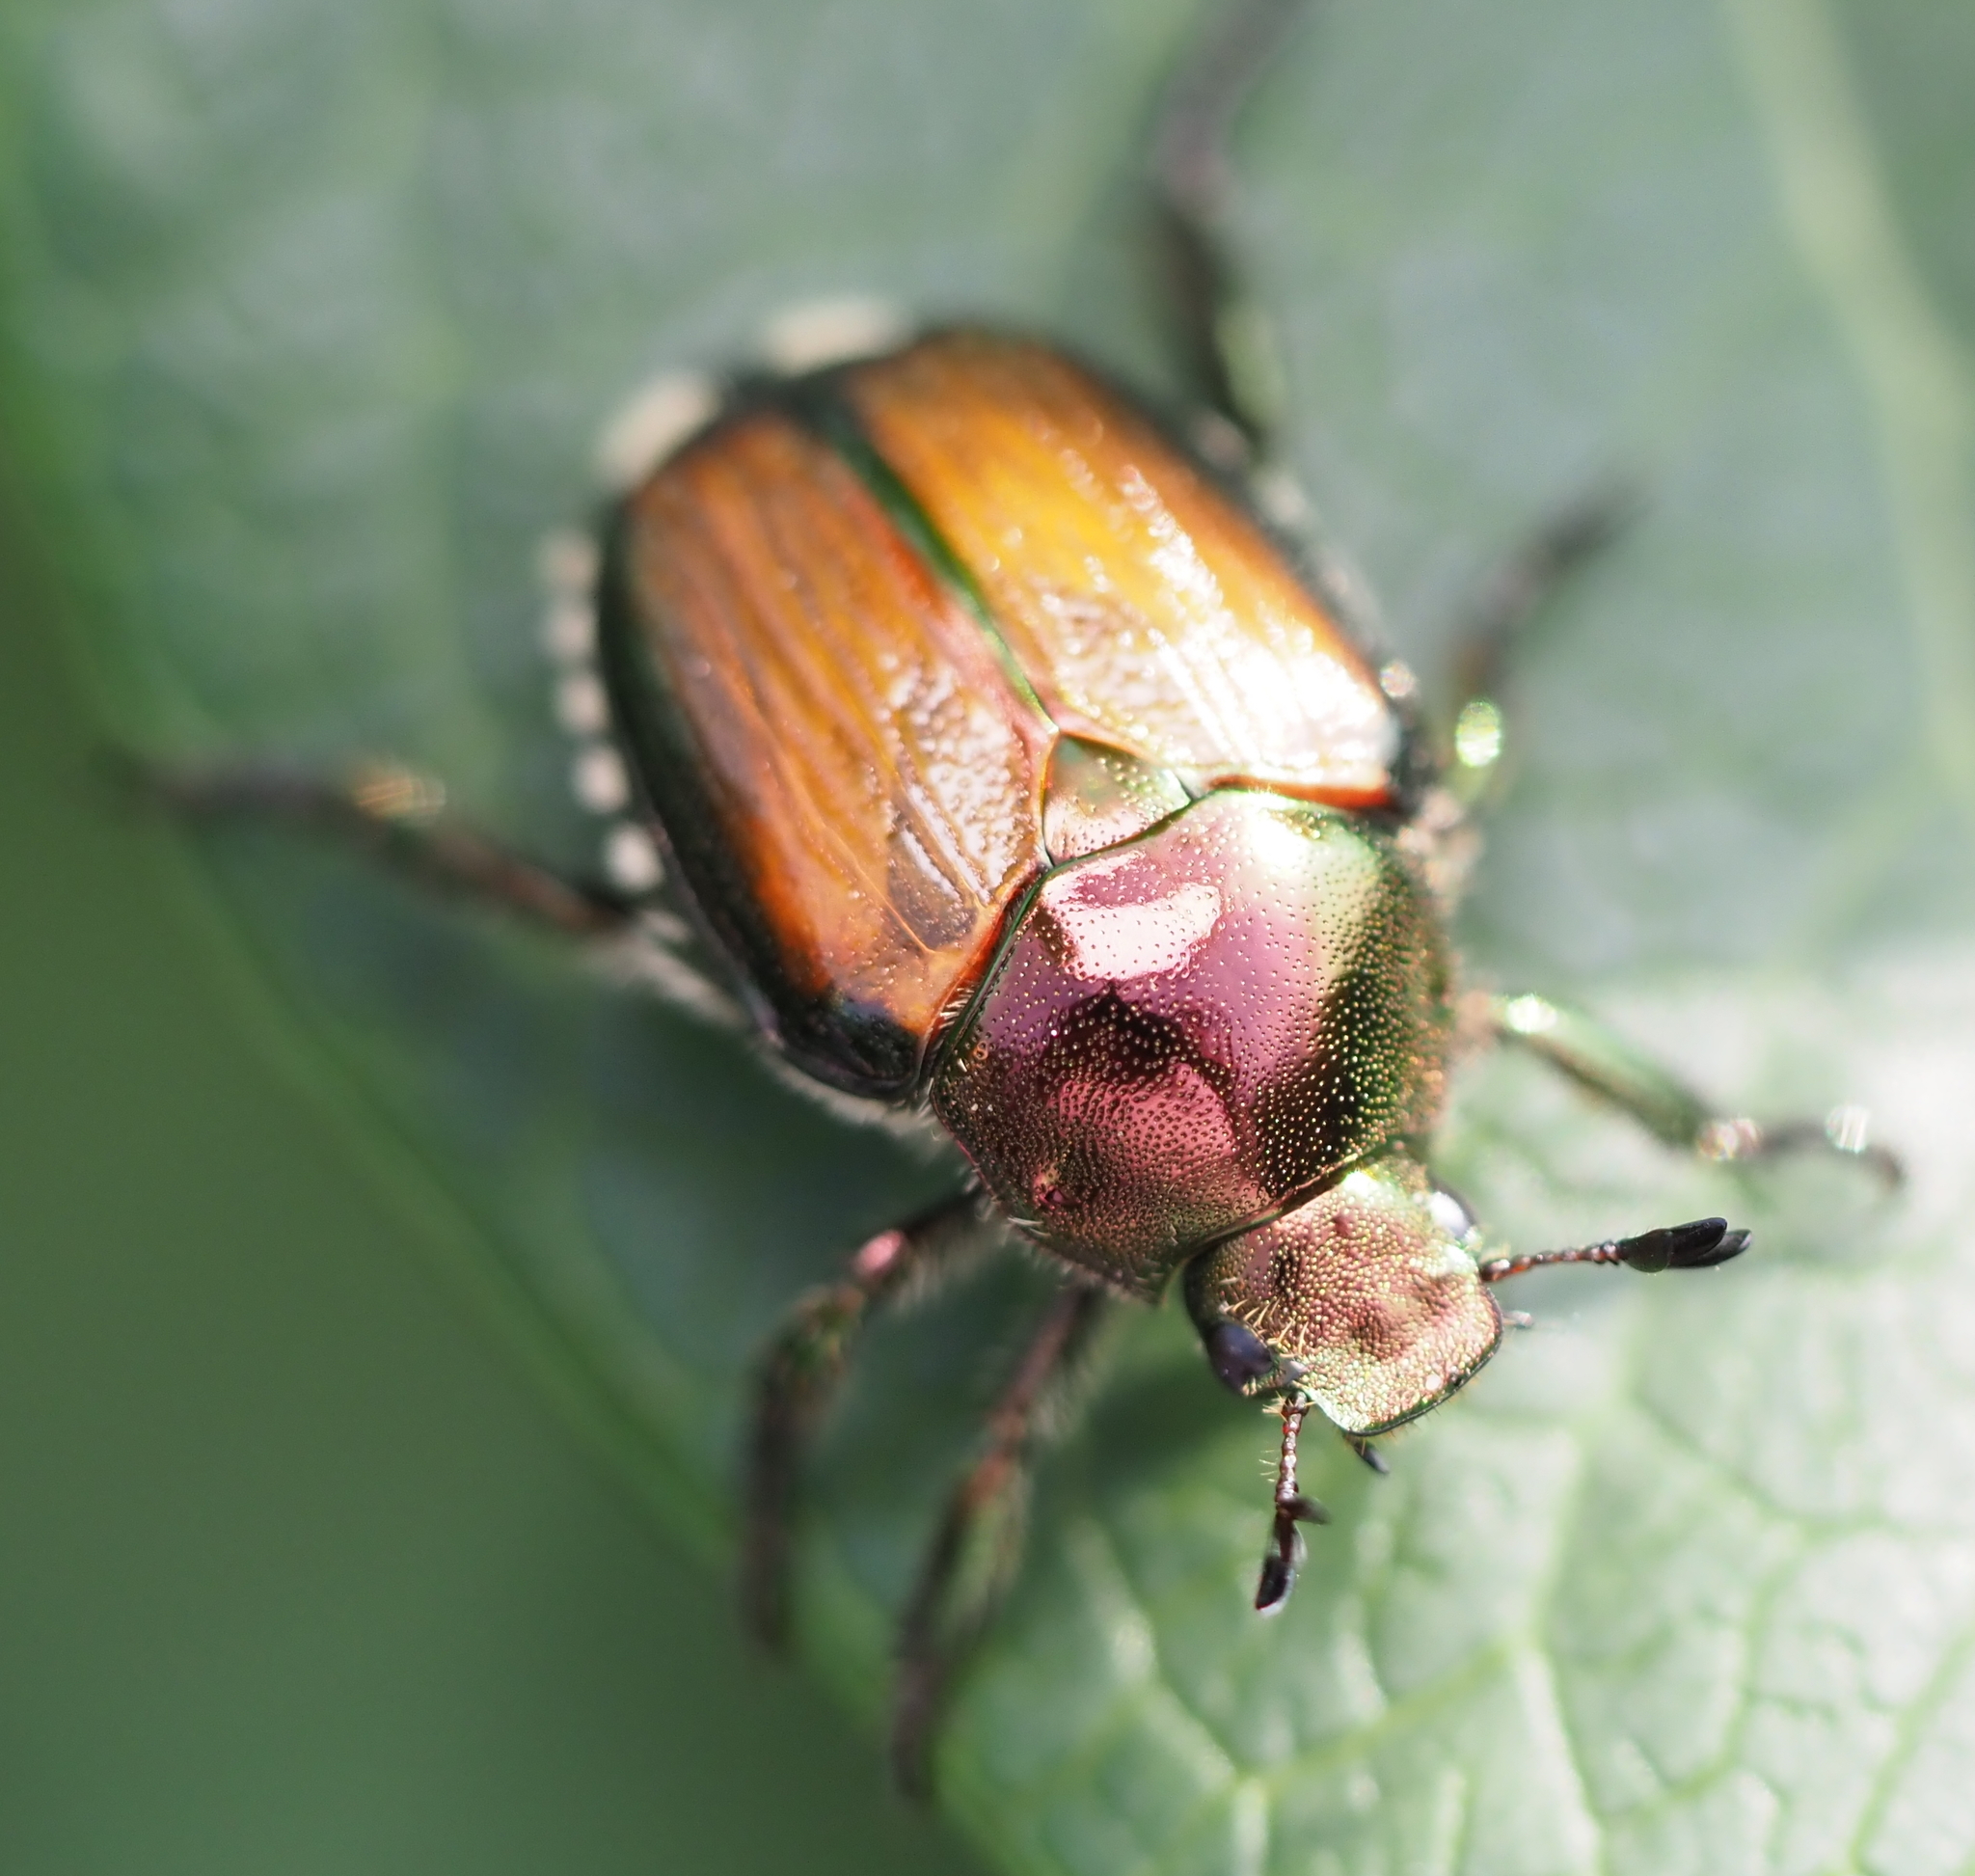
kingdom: Animalia
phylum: Arthropoda
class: Insecta
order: Coleoptera
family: Scarabaeidae
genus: Popillia
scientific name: Popillia japonica
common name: Japanese beetle
